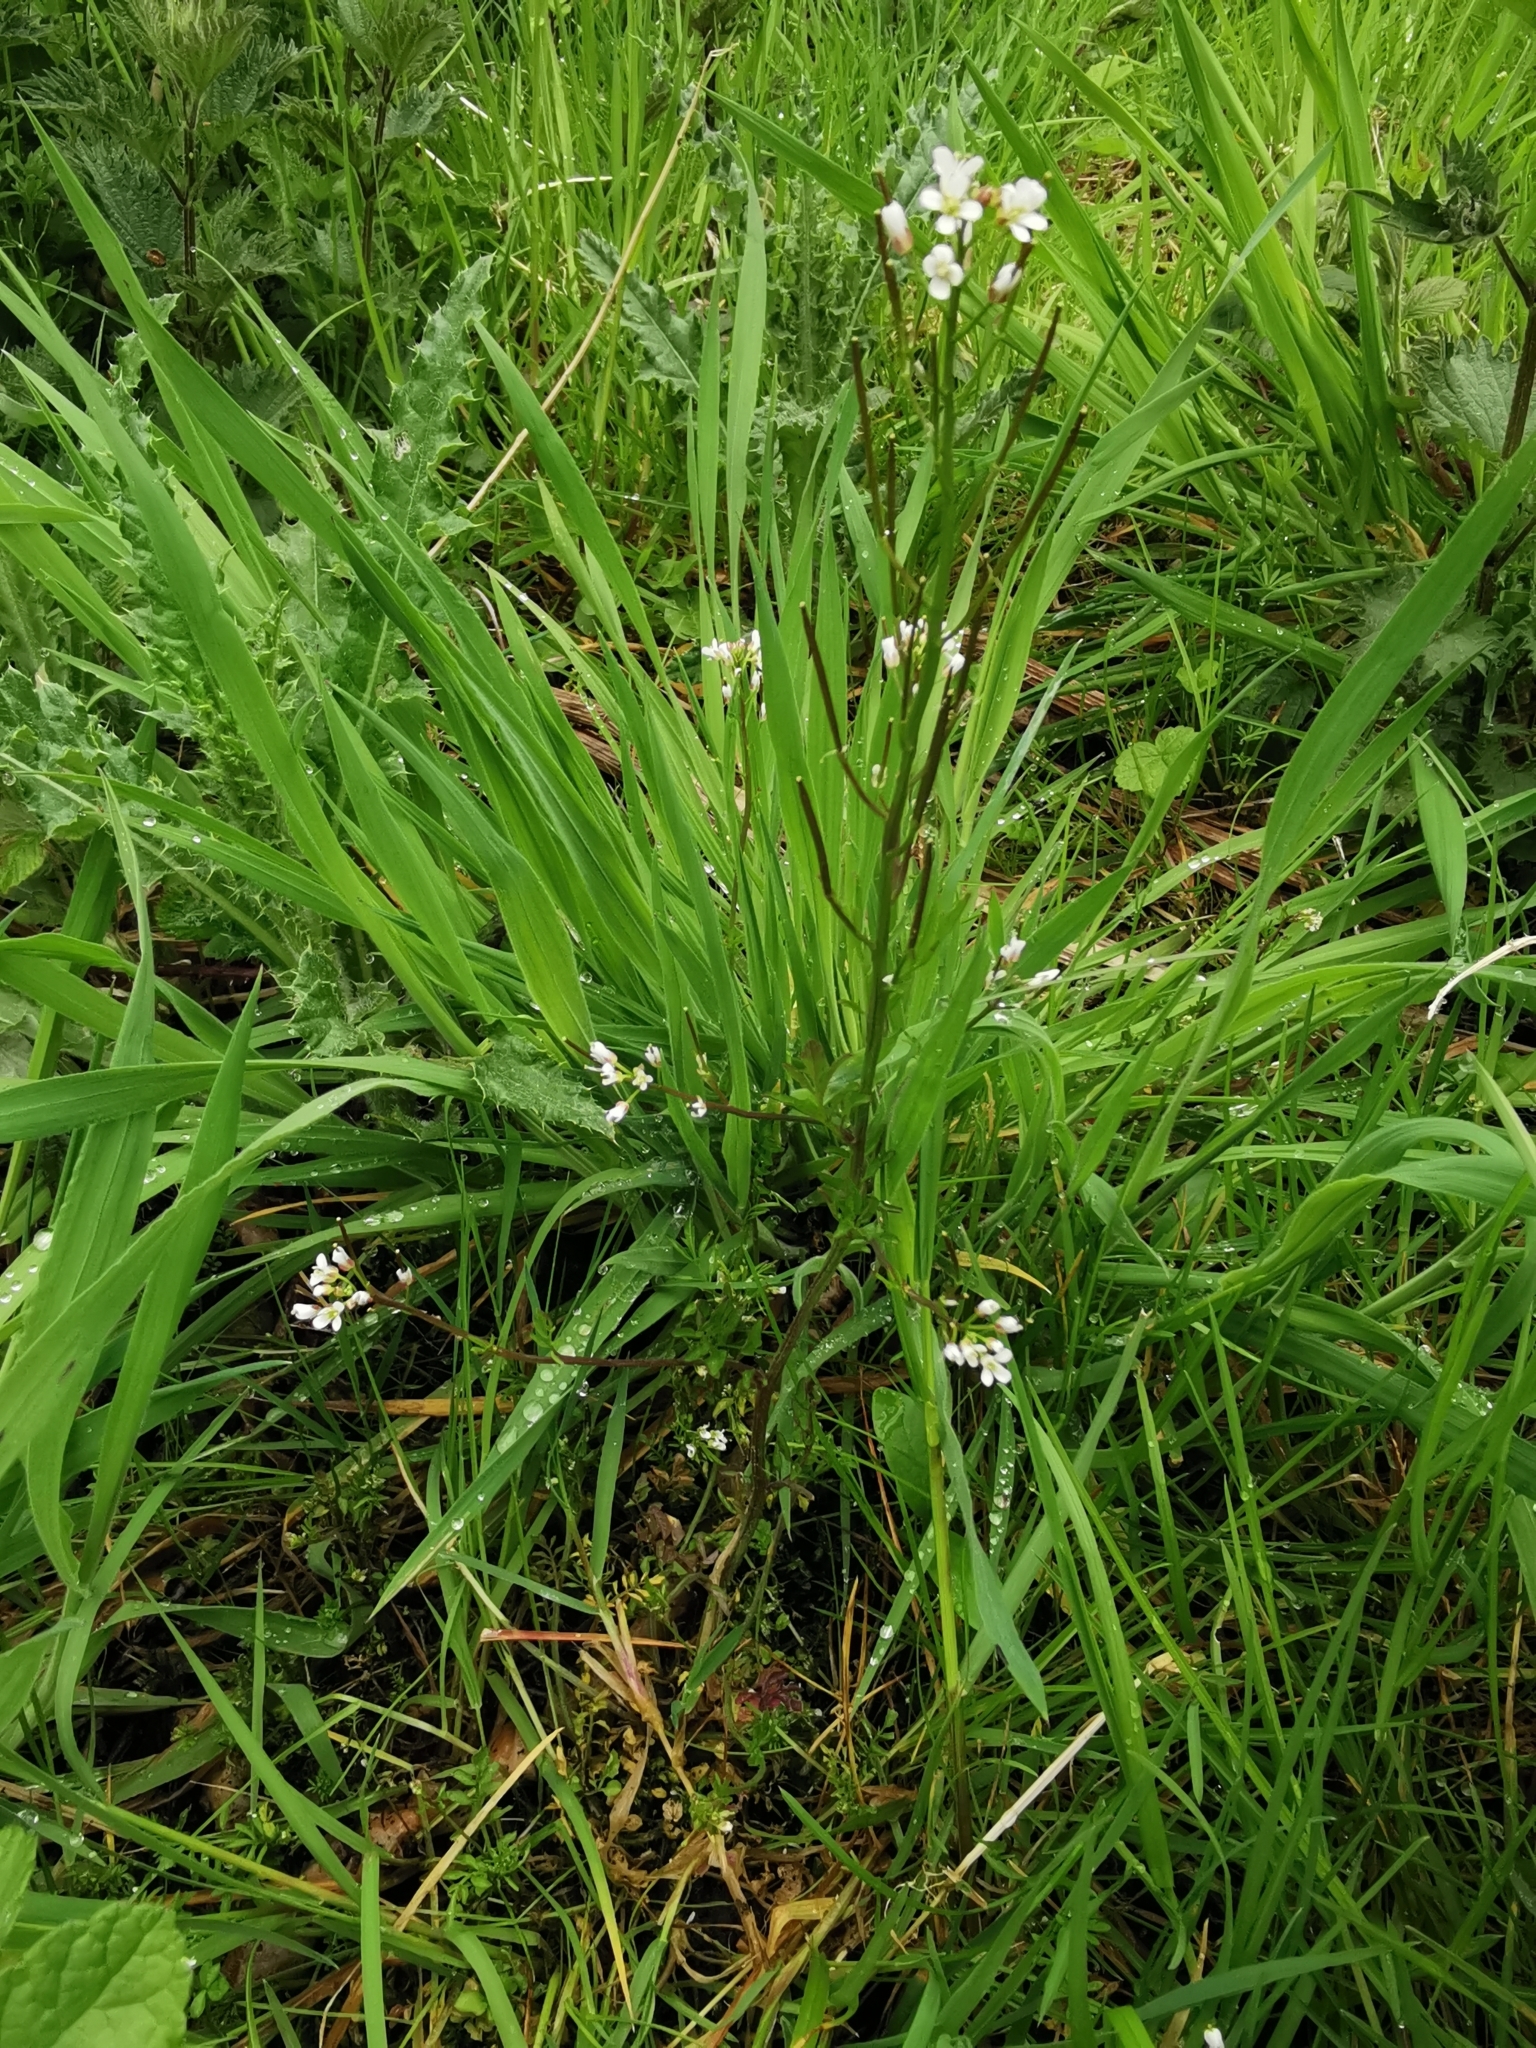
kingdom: Plantae
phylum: Tracheophyta
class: Magnoliopsida
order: Brassicales
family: Brassicaceae
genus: Cardamine
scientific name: Cardamine flexuosa
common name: Woodland bittercress
